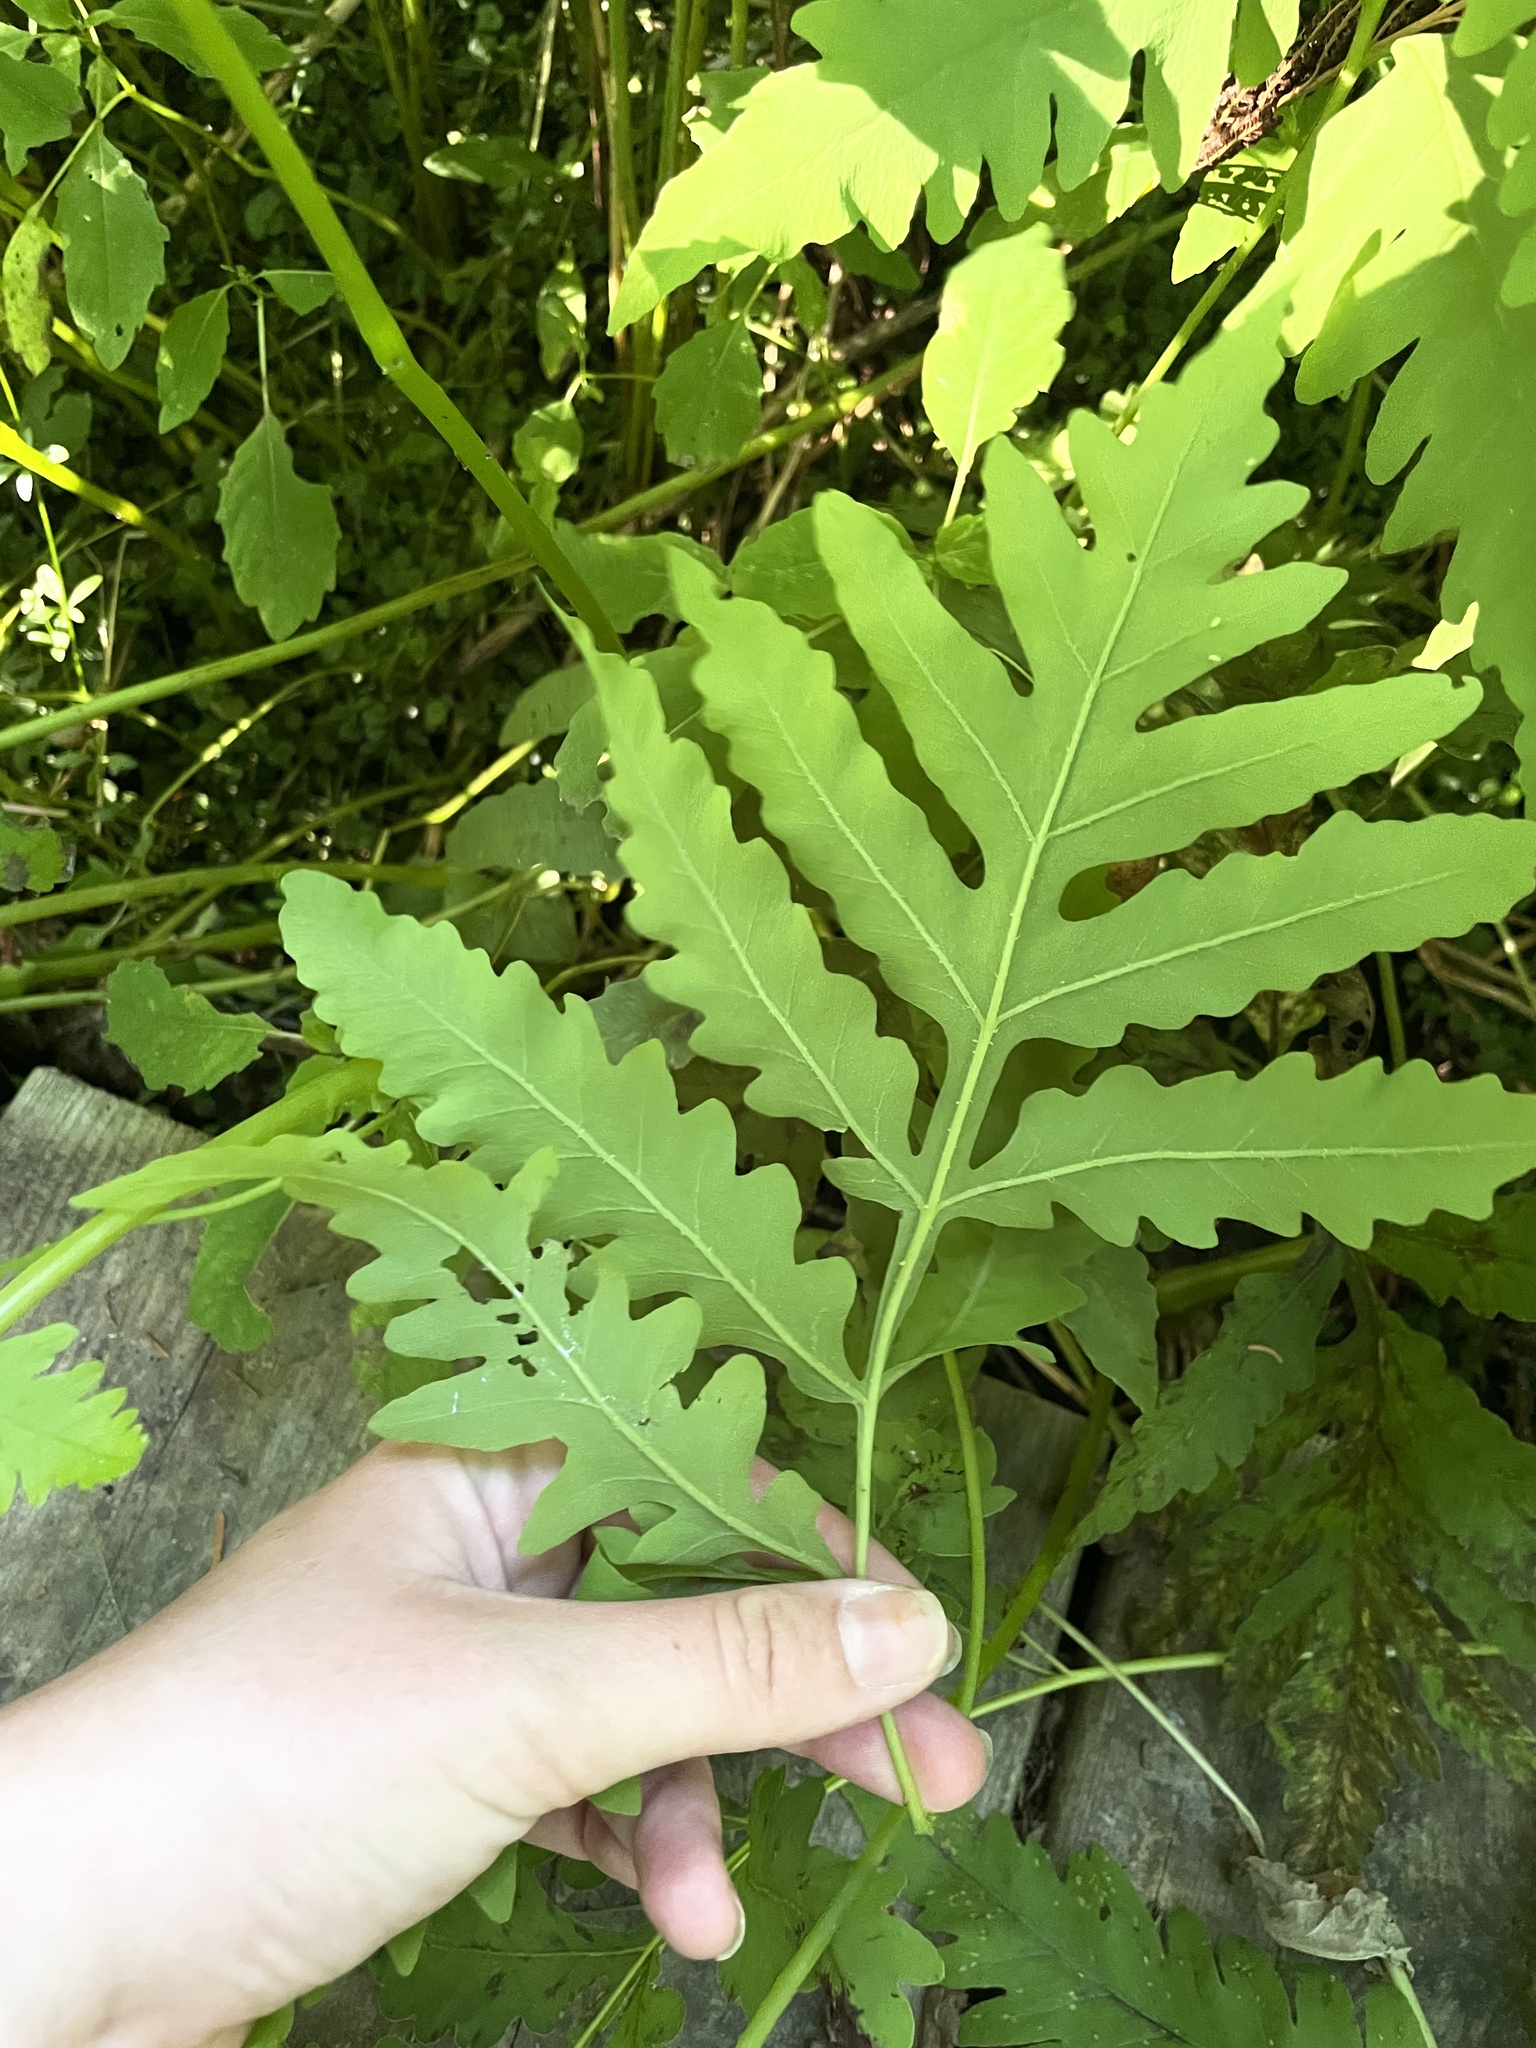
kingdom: Plantae
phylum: Tracheophyta
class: Polypodiopsida
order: Polypodiales
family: Onocleaceae
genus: Onoclea
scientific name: Onoclea sensibilis
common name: Sensitive fern
